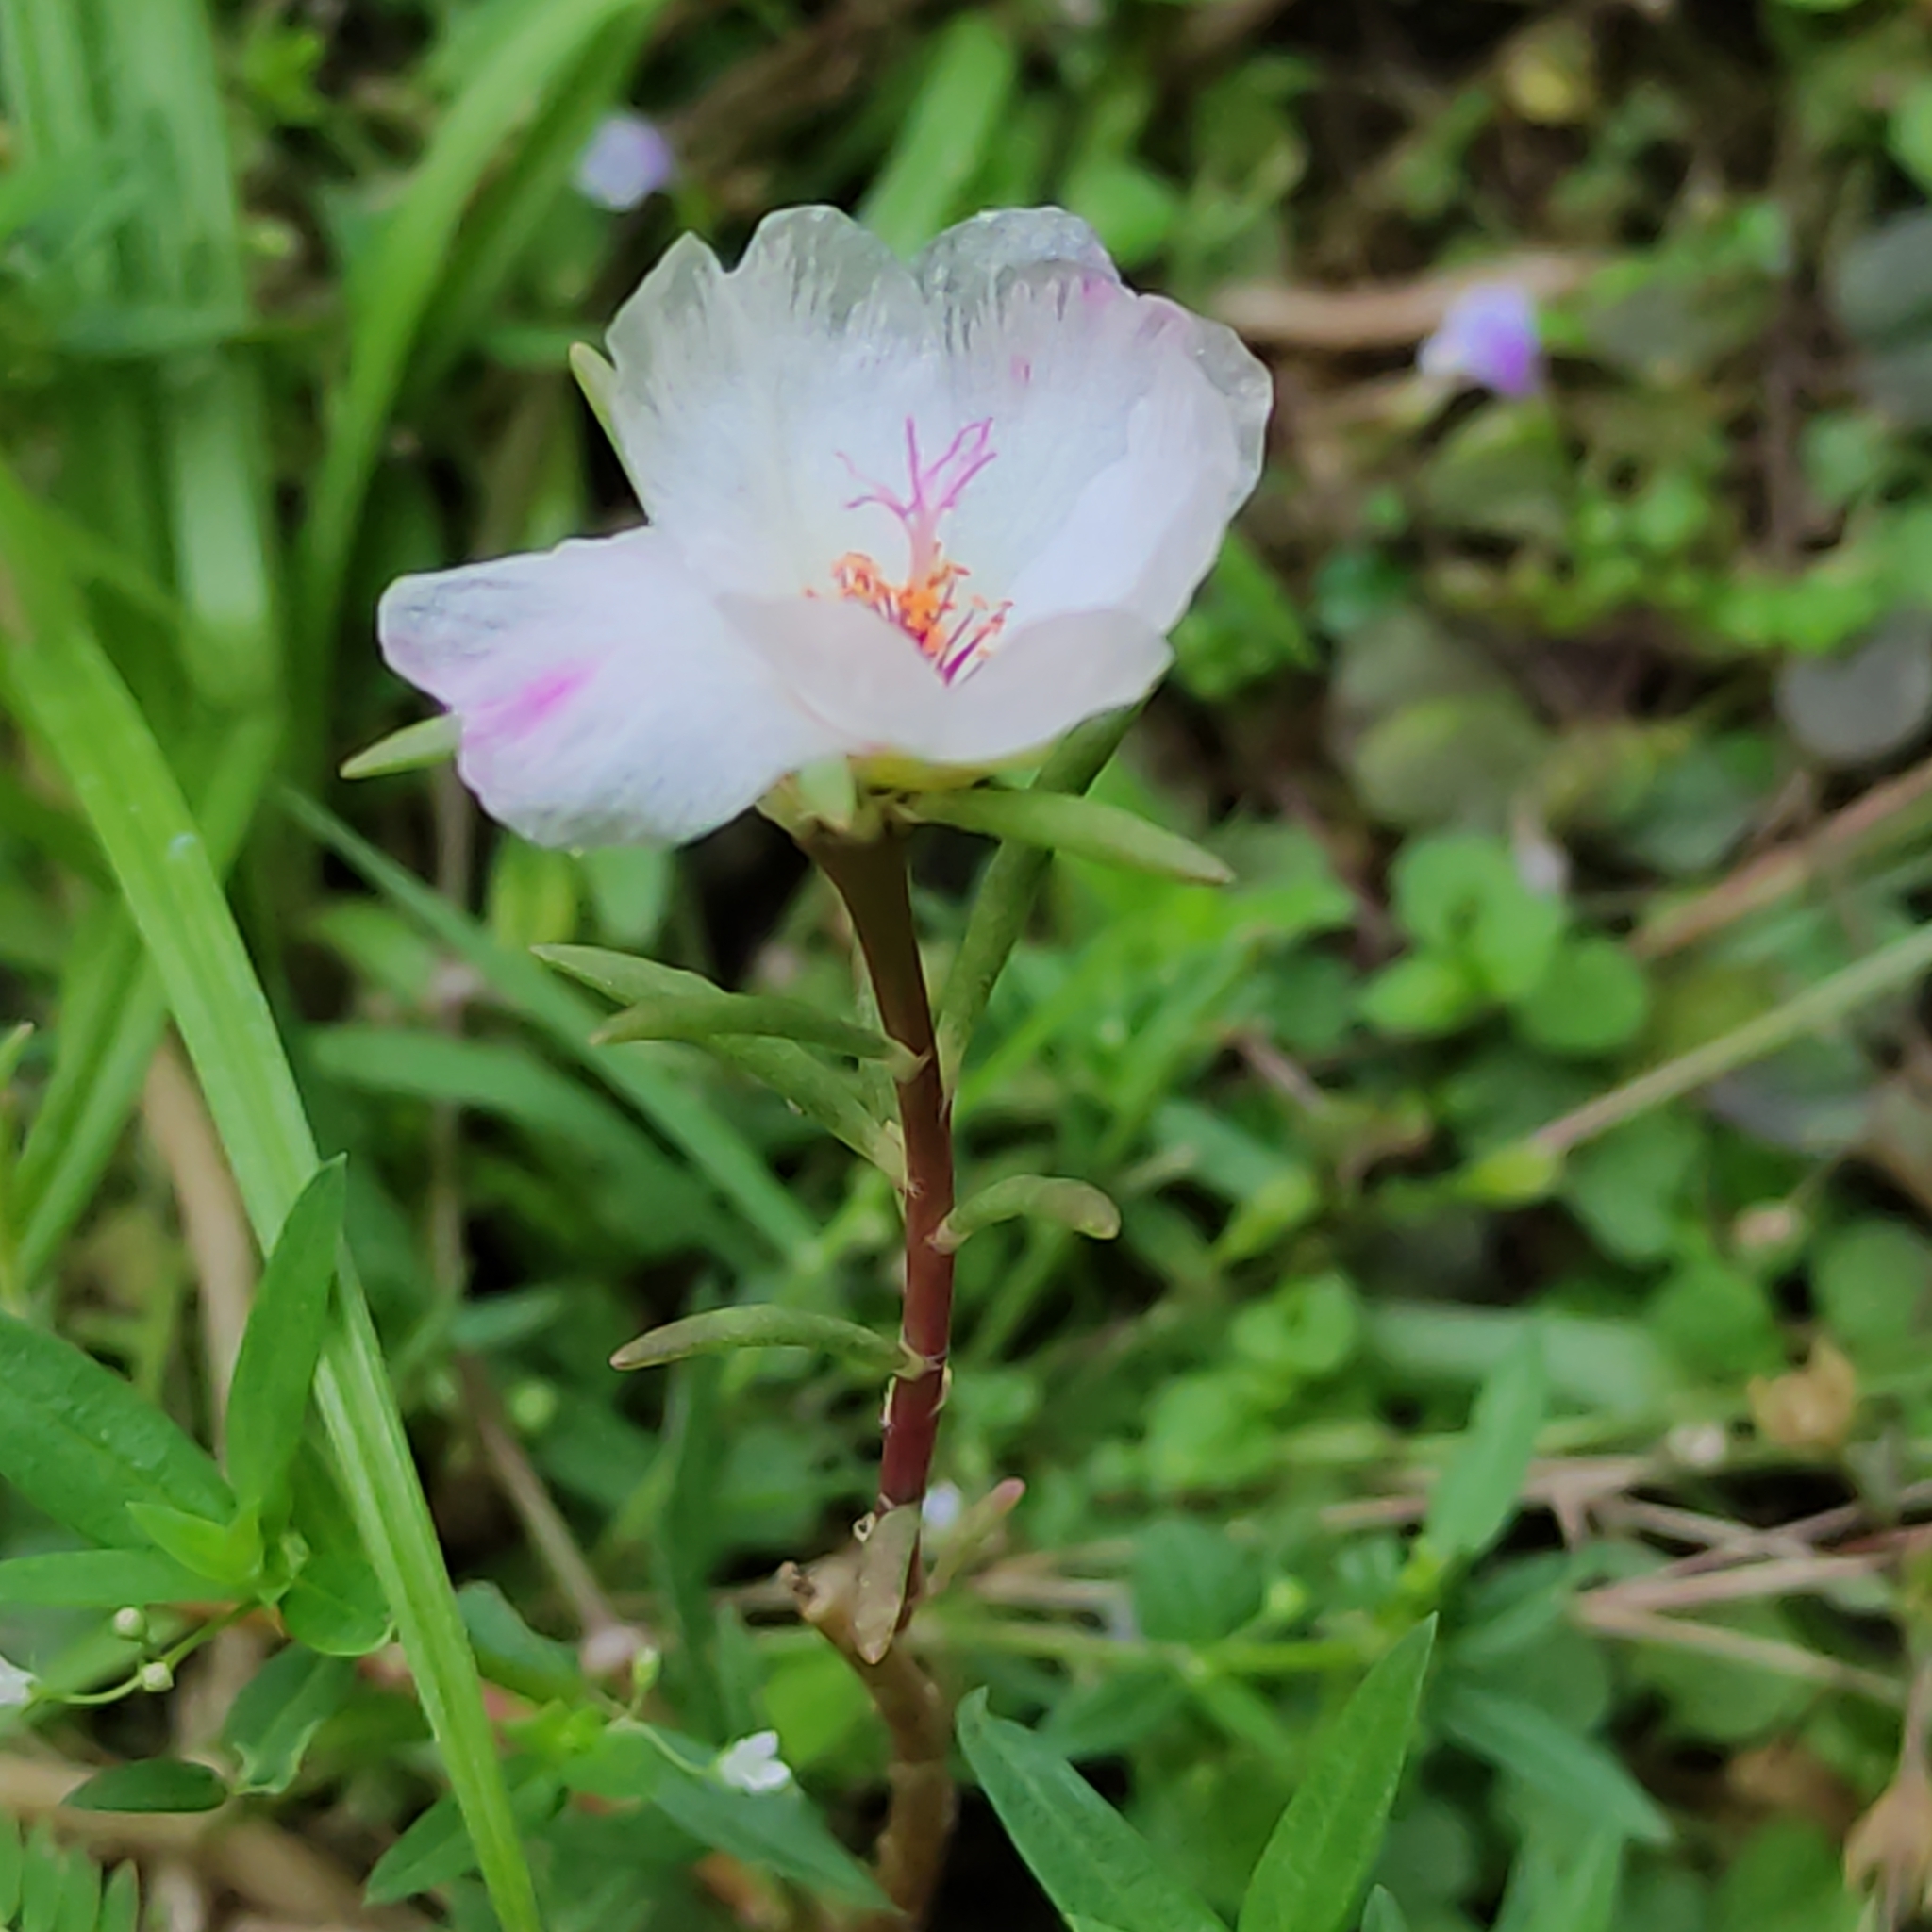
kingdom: Plantae
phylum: Tracheophyta
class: Magnoliopsida
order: Caryophyllales
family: Portulacaceae
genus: Portulaca
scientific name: Portulaca grandiflora
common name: Moss-rose
